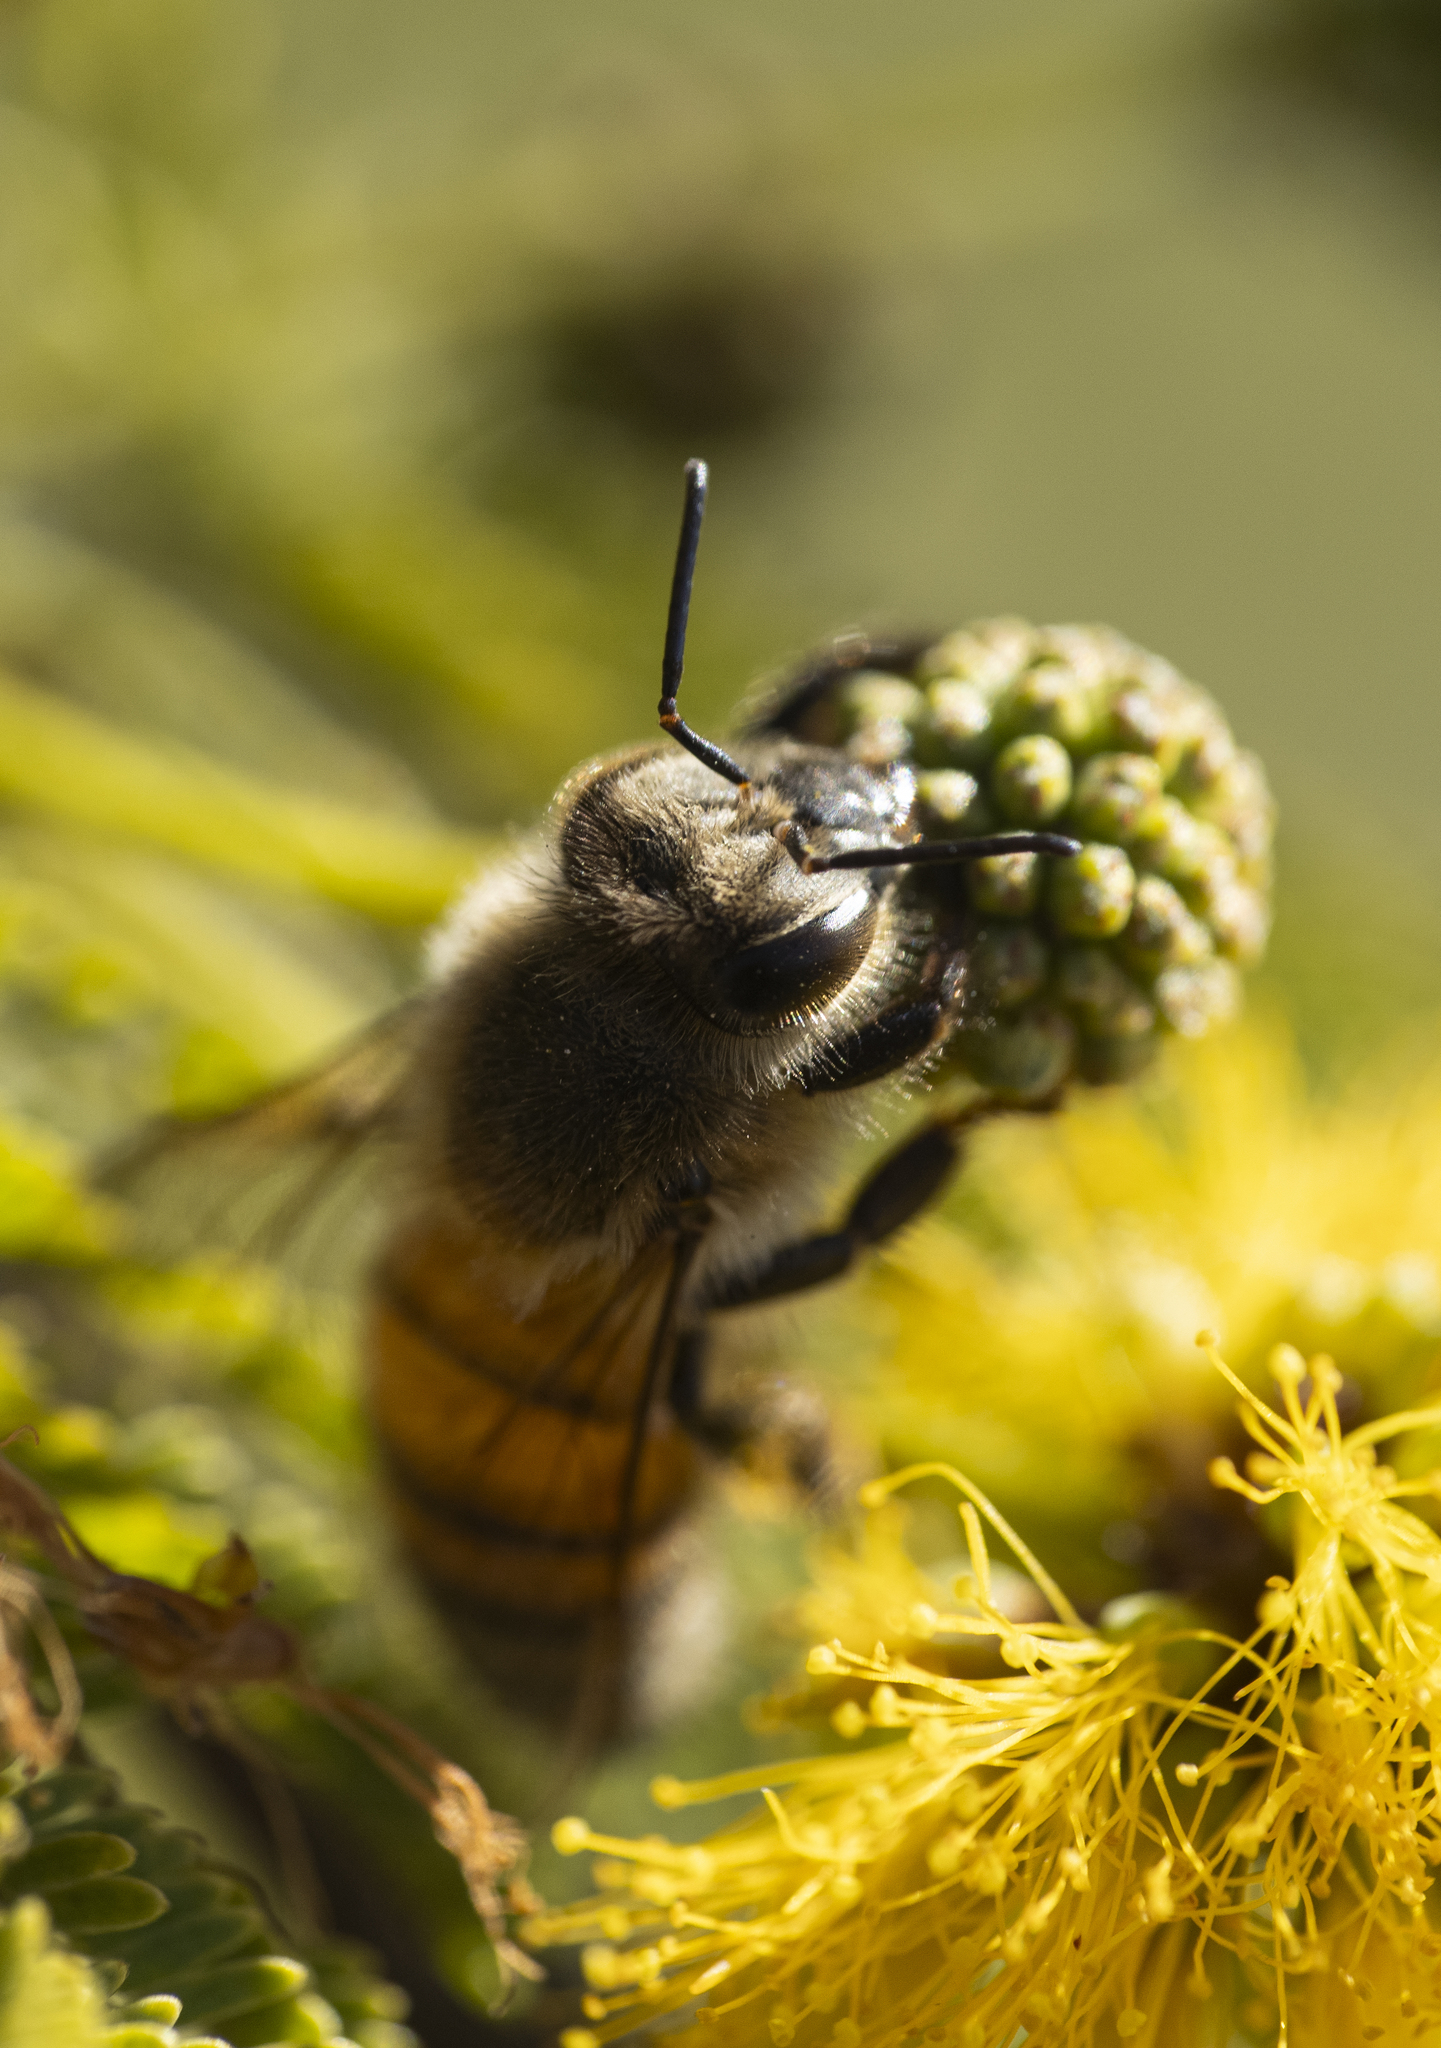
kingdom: Animalia
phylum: Arthropoda
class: Insecta
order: Hymenoptera
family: Apidae
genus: Apis
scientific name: Apis mellifera
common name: Honey bee
